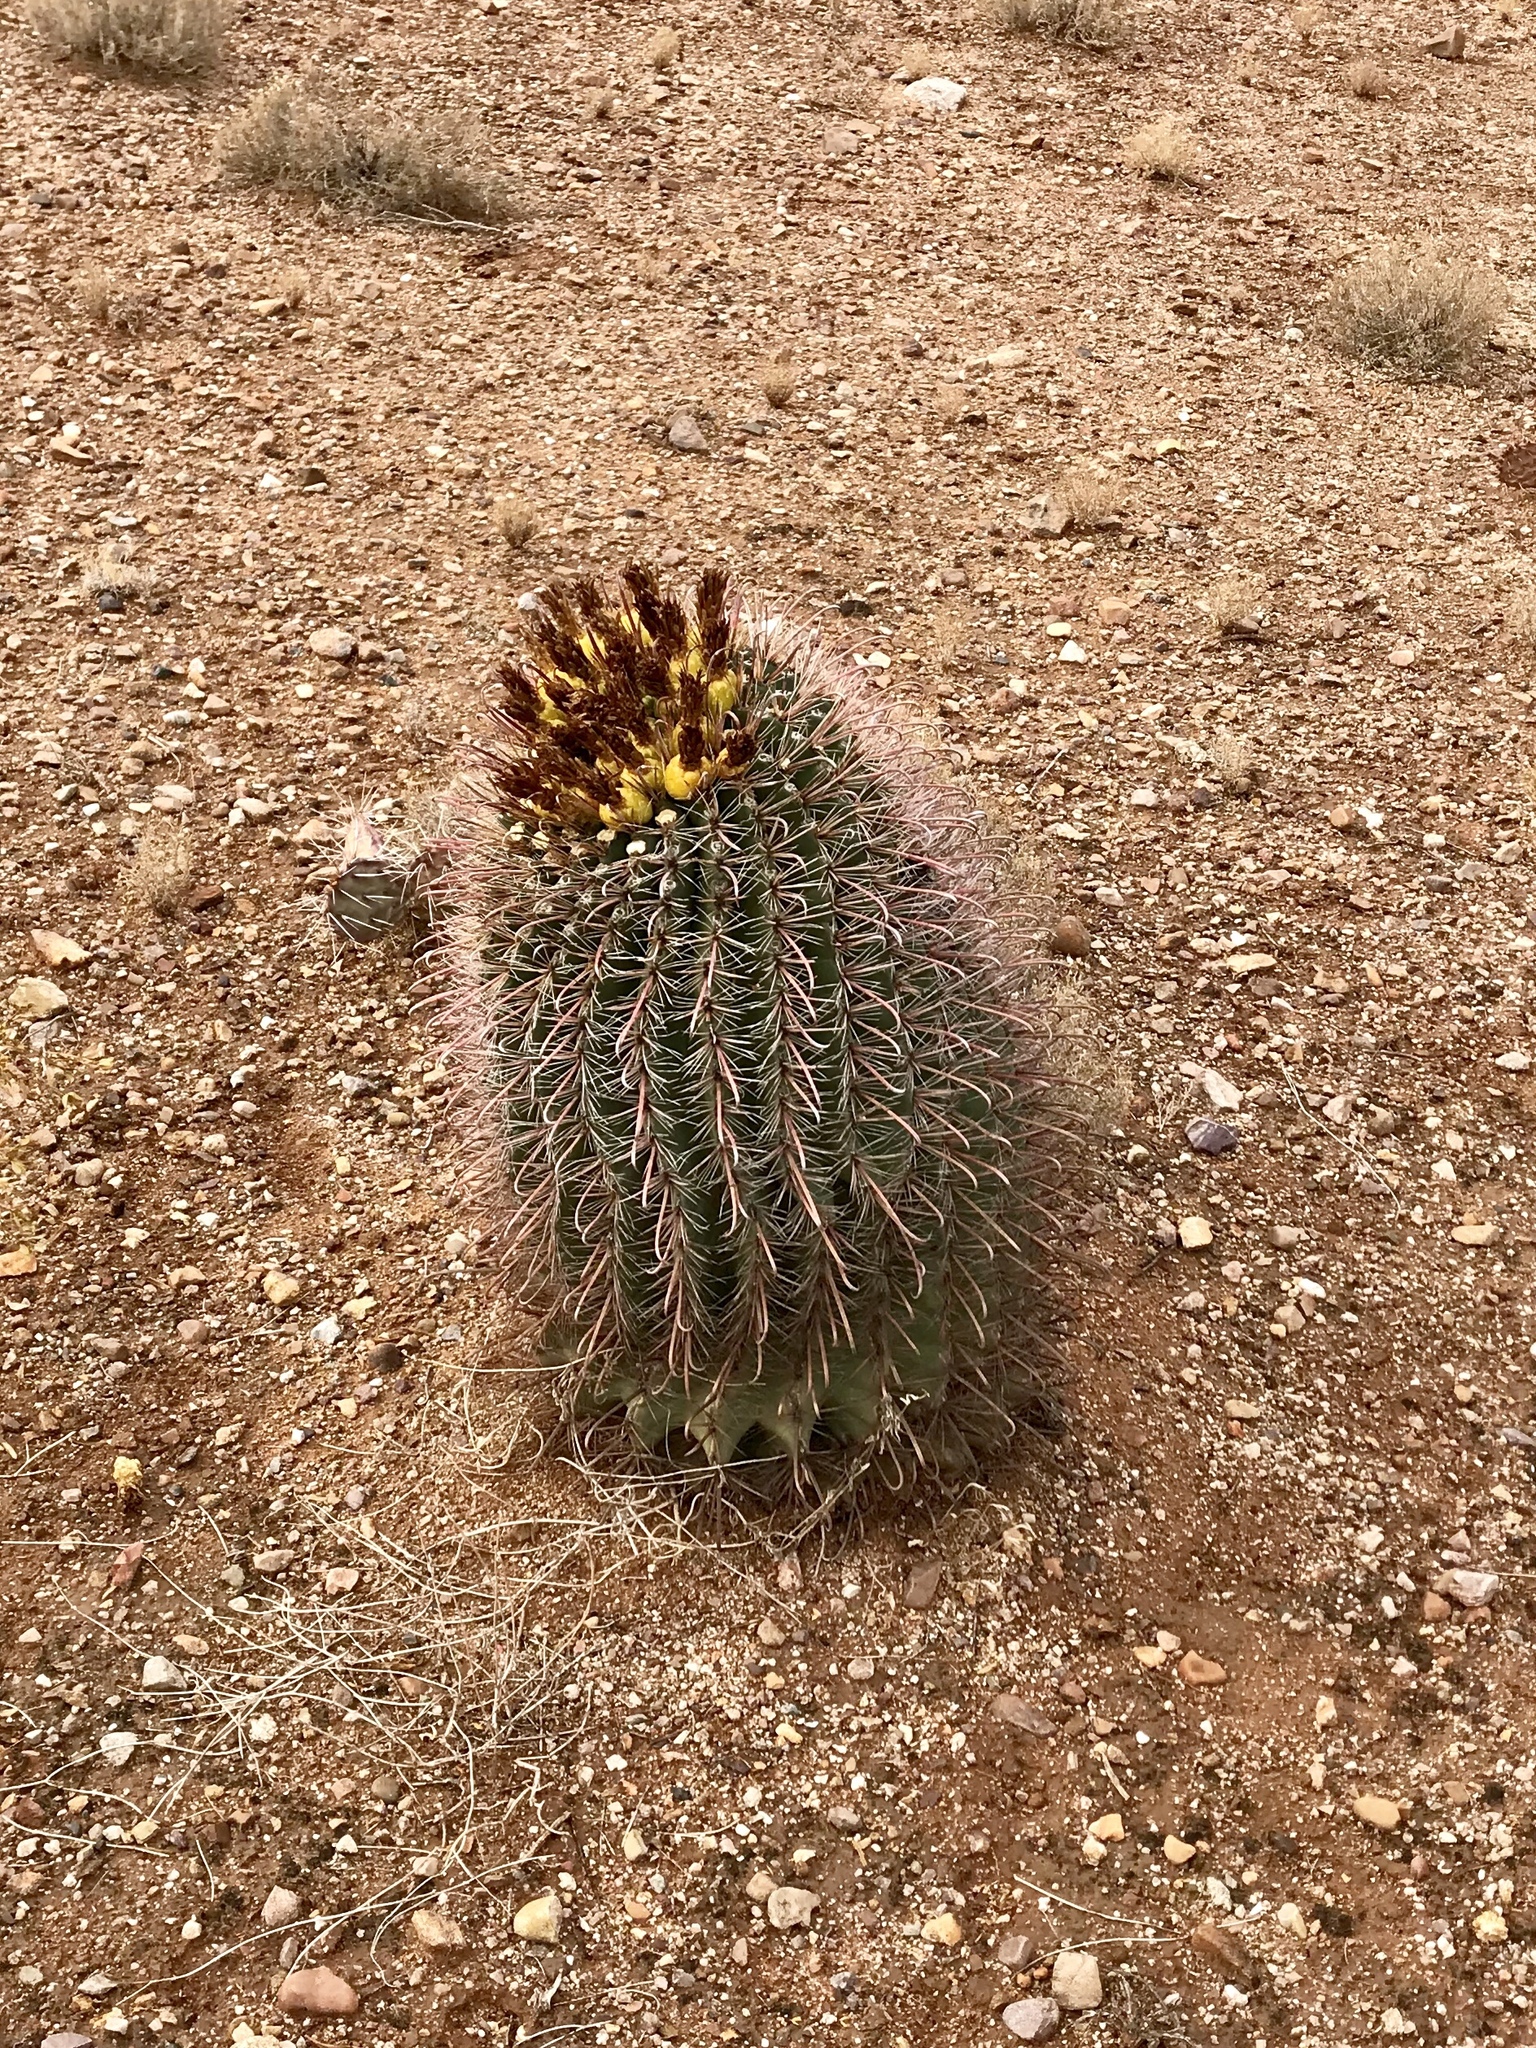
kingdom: Plantae
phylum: Tracheophyta
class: Magnoliopsida
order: Caryophyllales
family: Cactaceae
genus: Ferocactus
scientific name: Ferocactus wislizeni
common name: Candy barrel cactus
